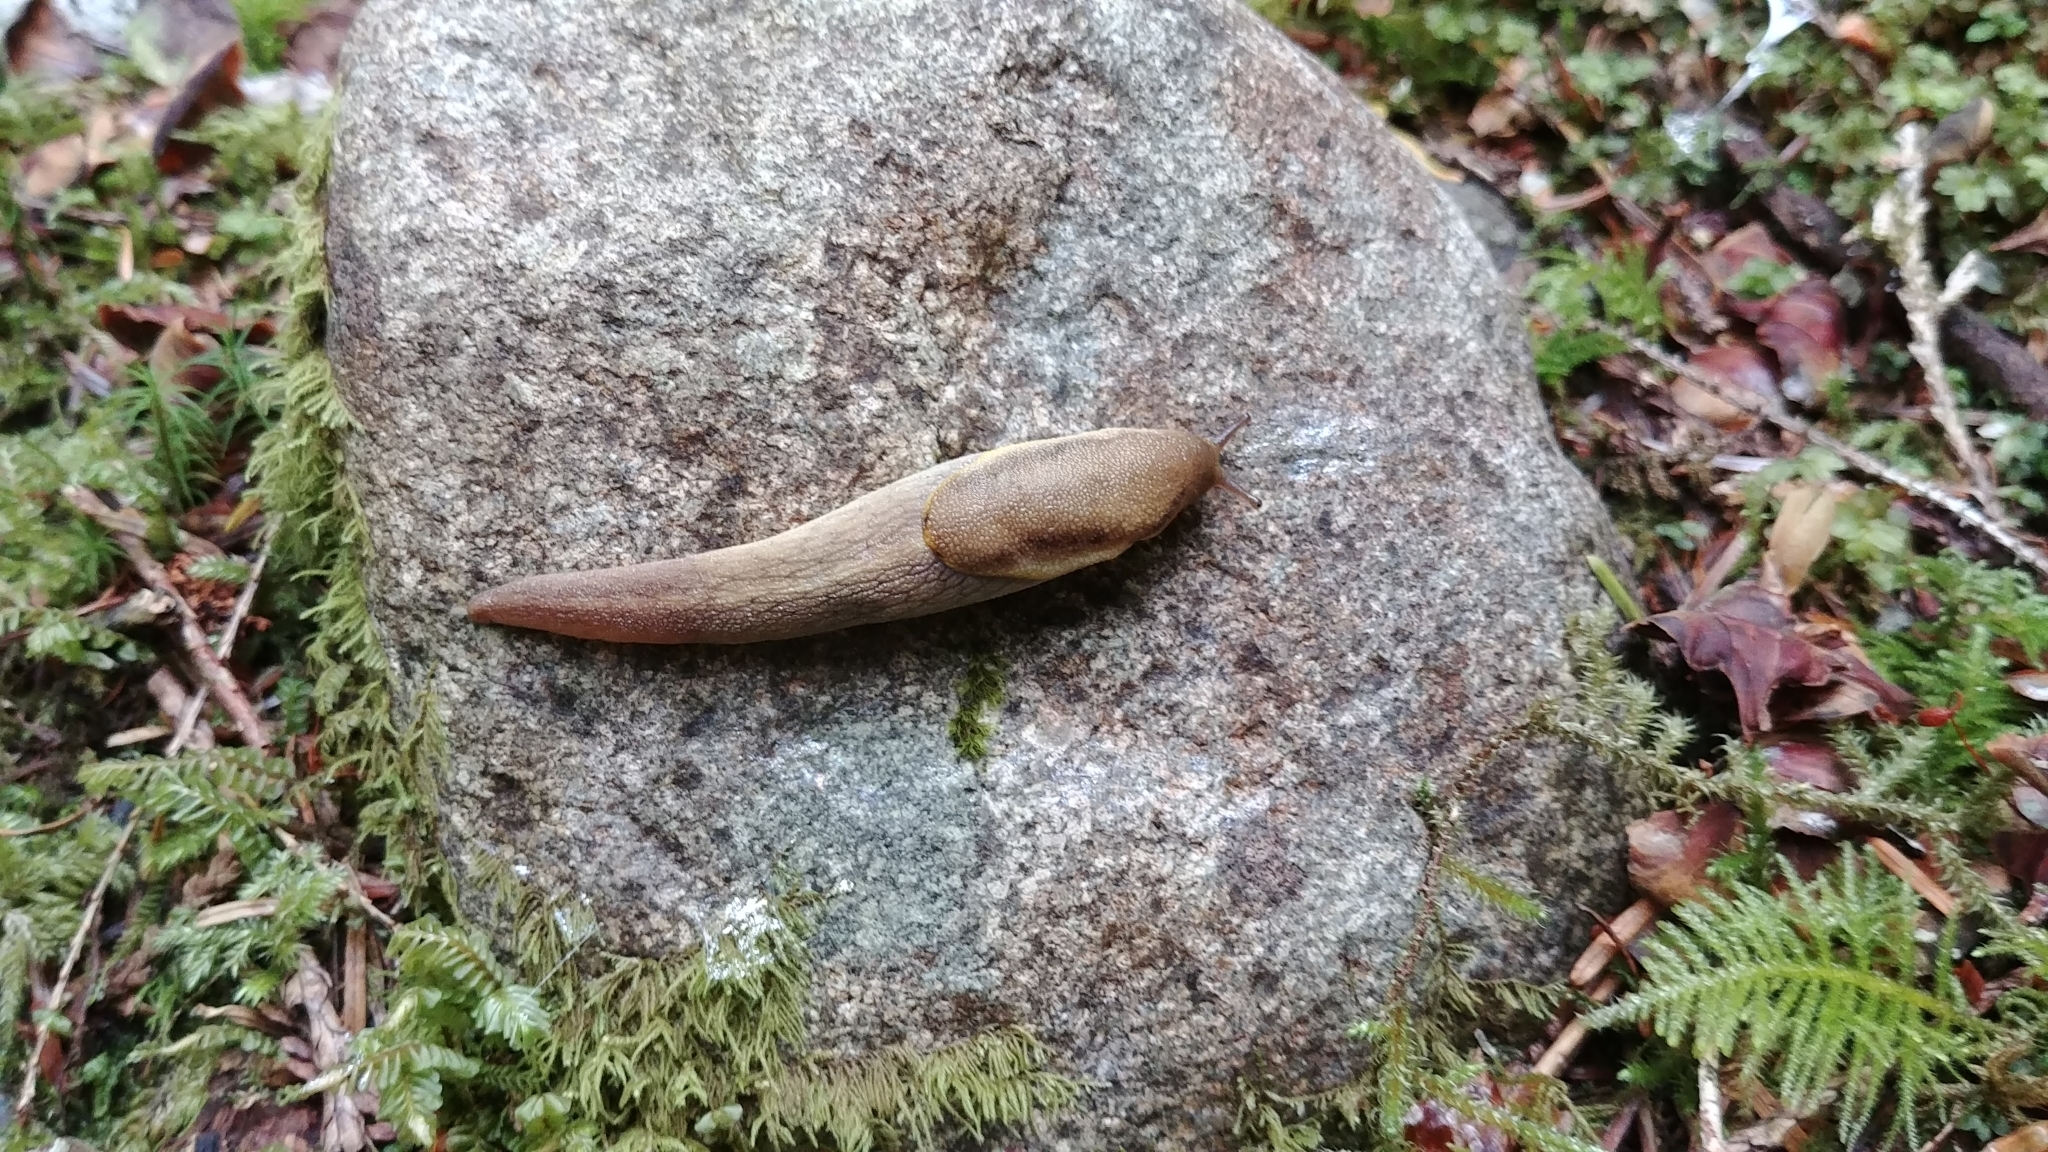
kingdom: Animalia
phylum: Mollusca
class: Gastropoda
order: Stylommatophora
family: Ariolimacidae
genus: Prophysaon
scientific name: Prophysaon foliolatum
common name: Yellow-bordered taildropper
